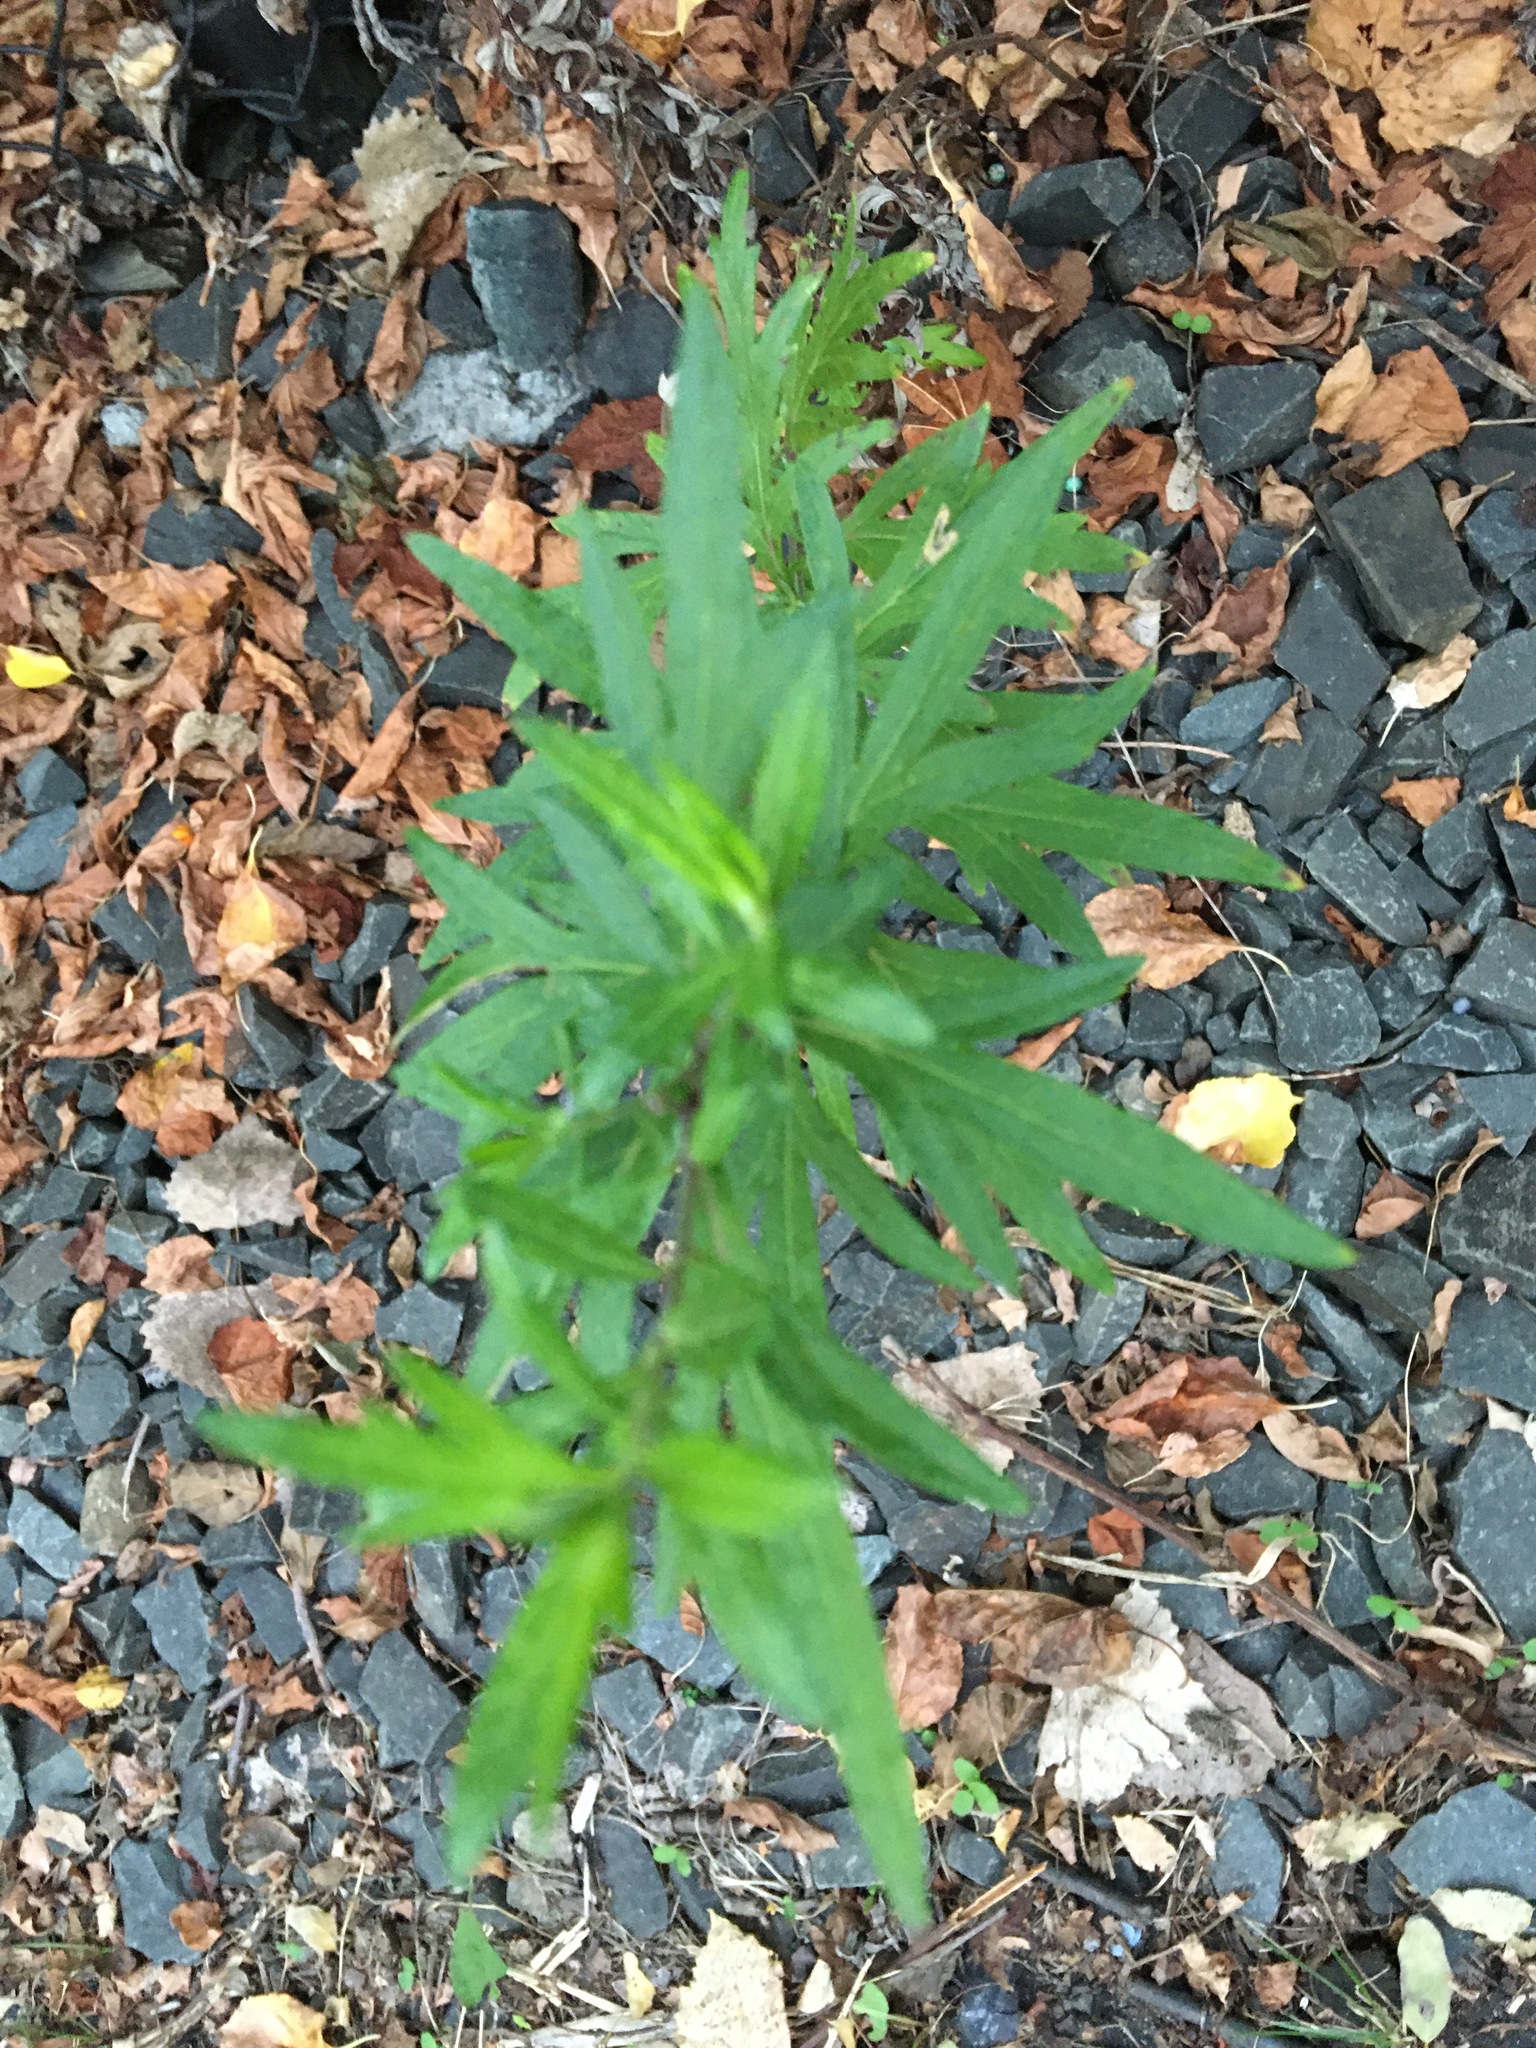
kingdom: Plantae
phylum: Tracheophyta
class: Magnoliopsida
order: Asterales
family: Asteraceae
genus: Artemisia
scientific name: Artemisia vulgaris
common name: Mugwort
